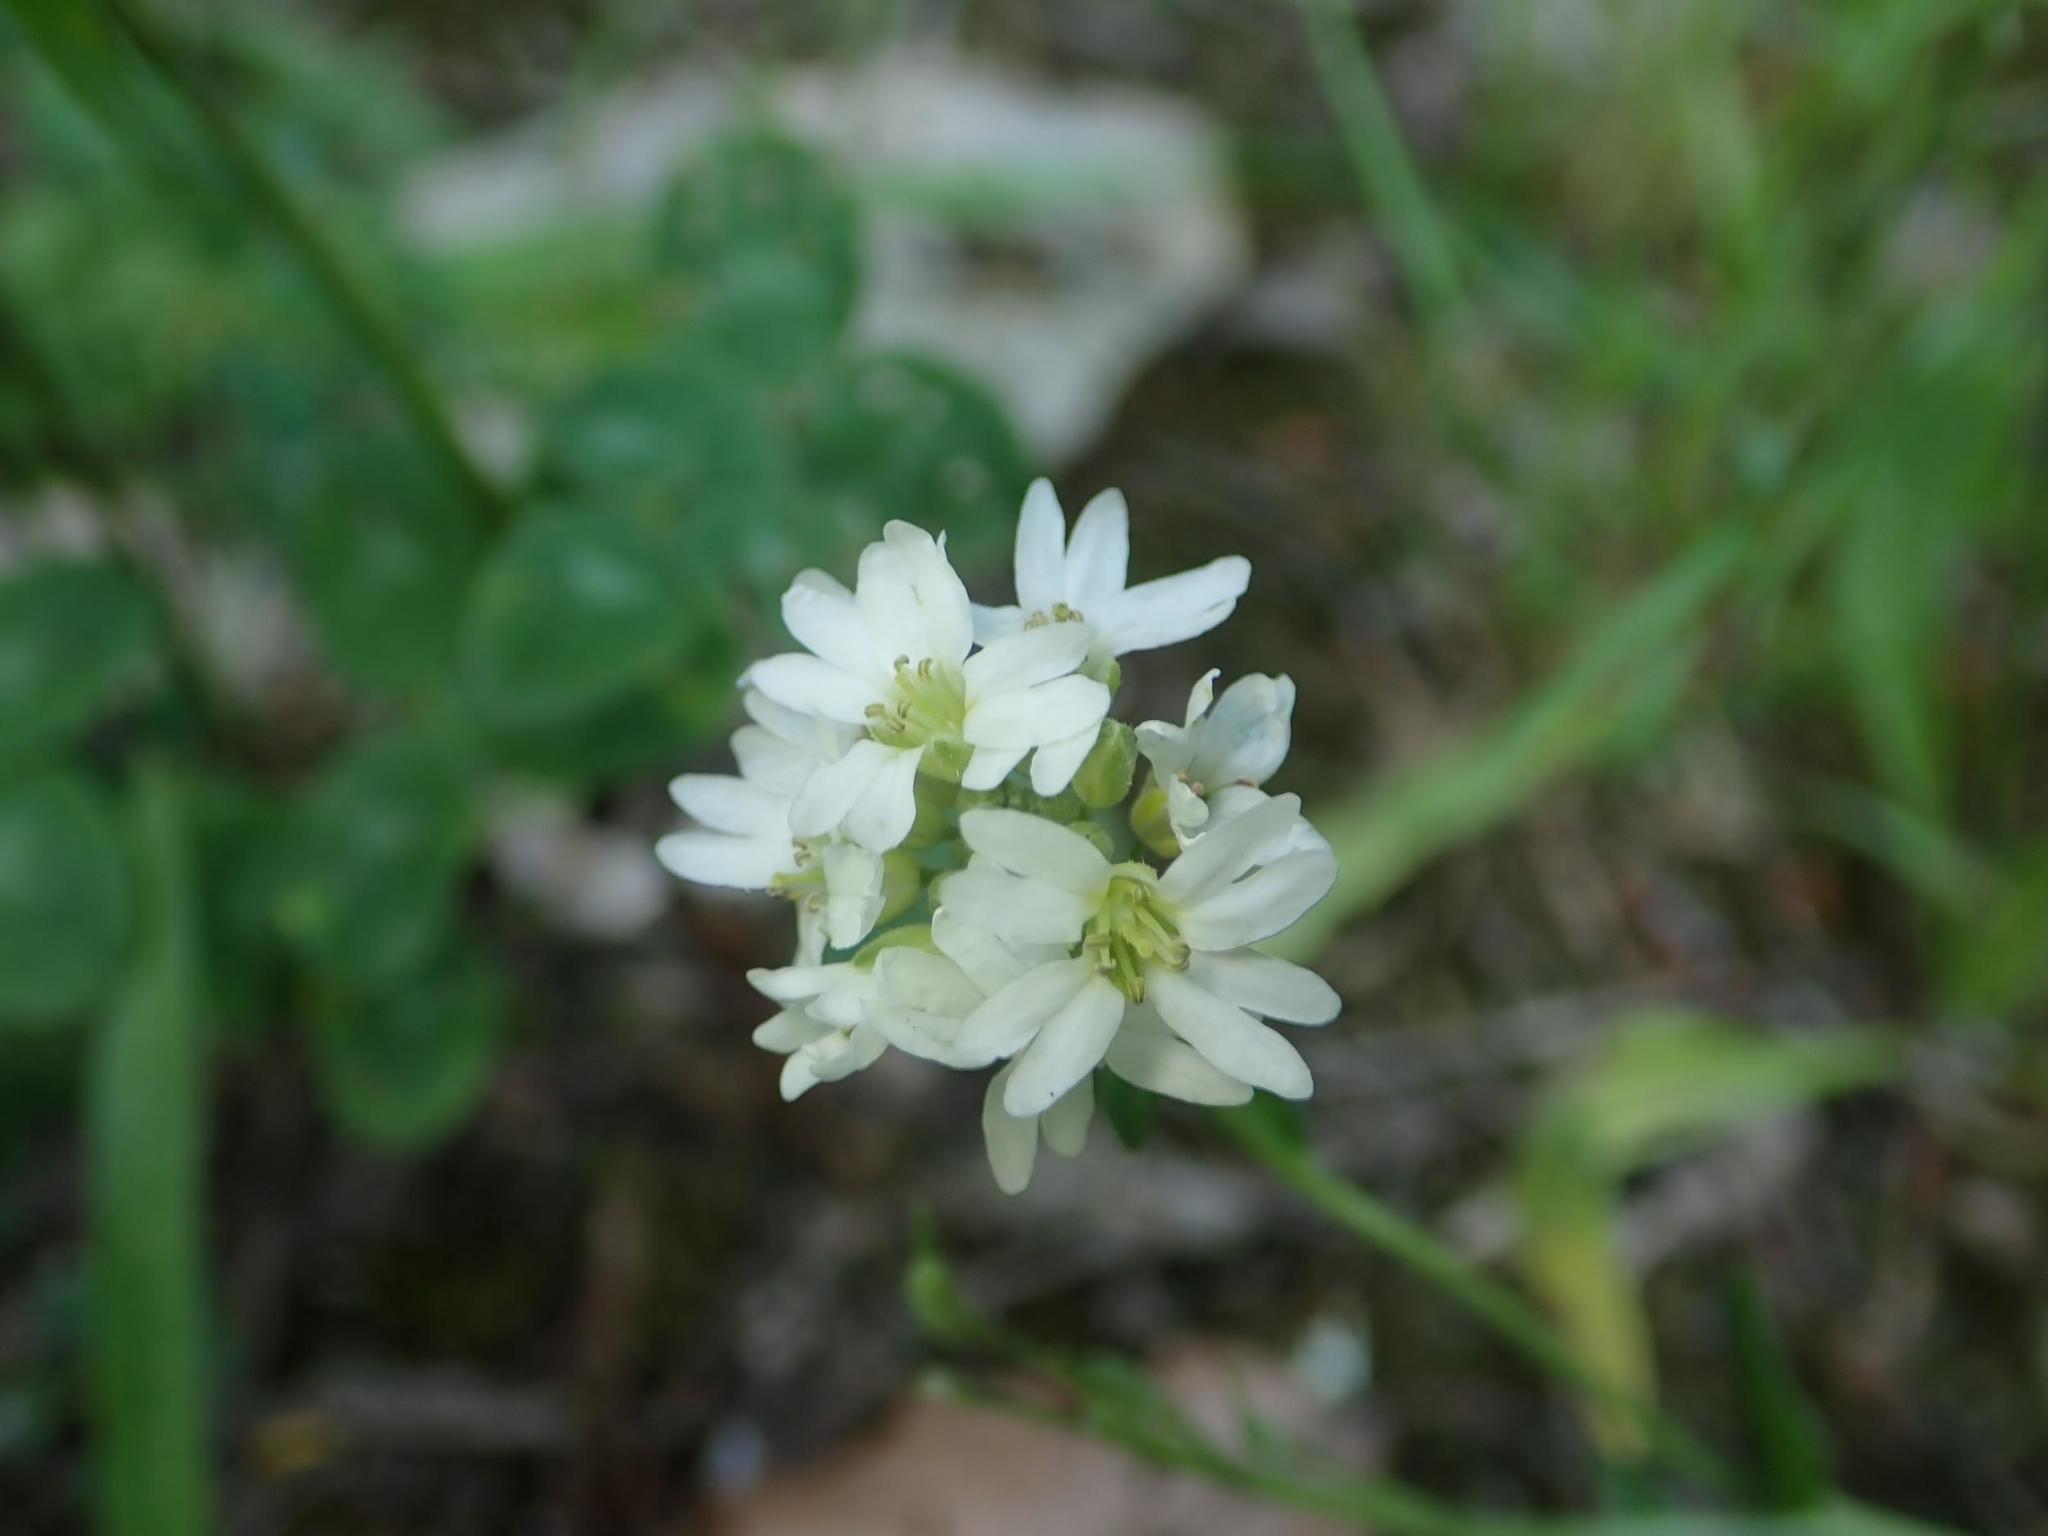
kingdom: Plantae
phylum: Tracheophyta
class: Magnoliopsida
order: Brassicales
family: Brassicaceae
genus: Berteroa
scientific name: Berteroa incana
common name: Hoary alison
